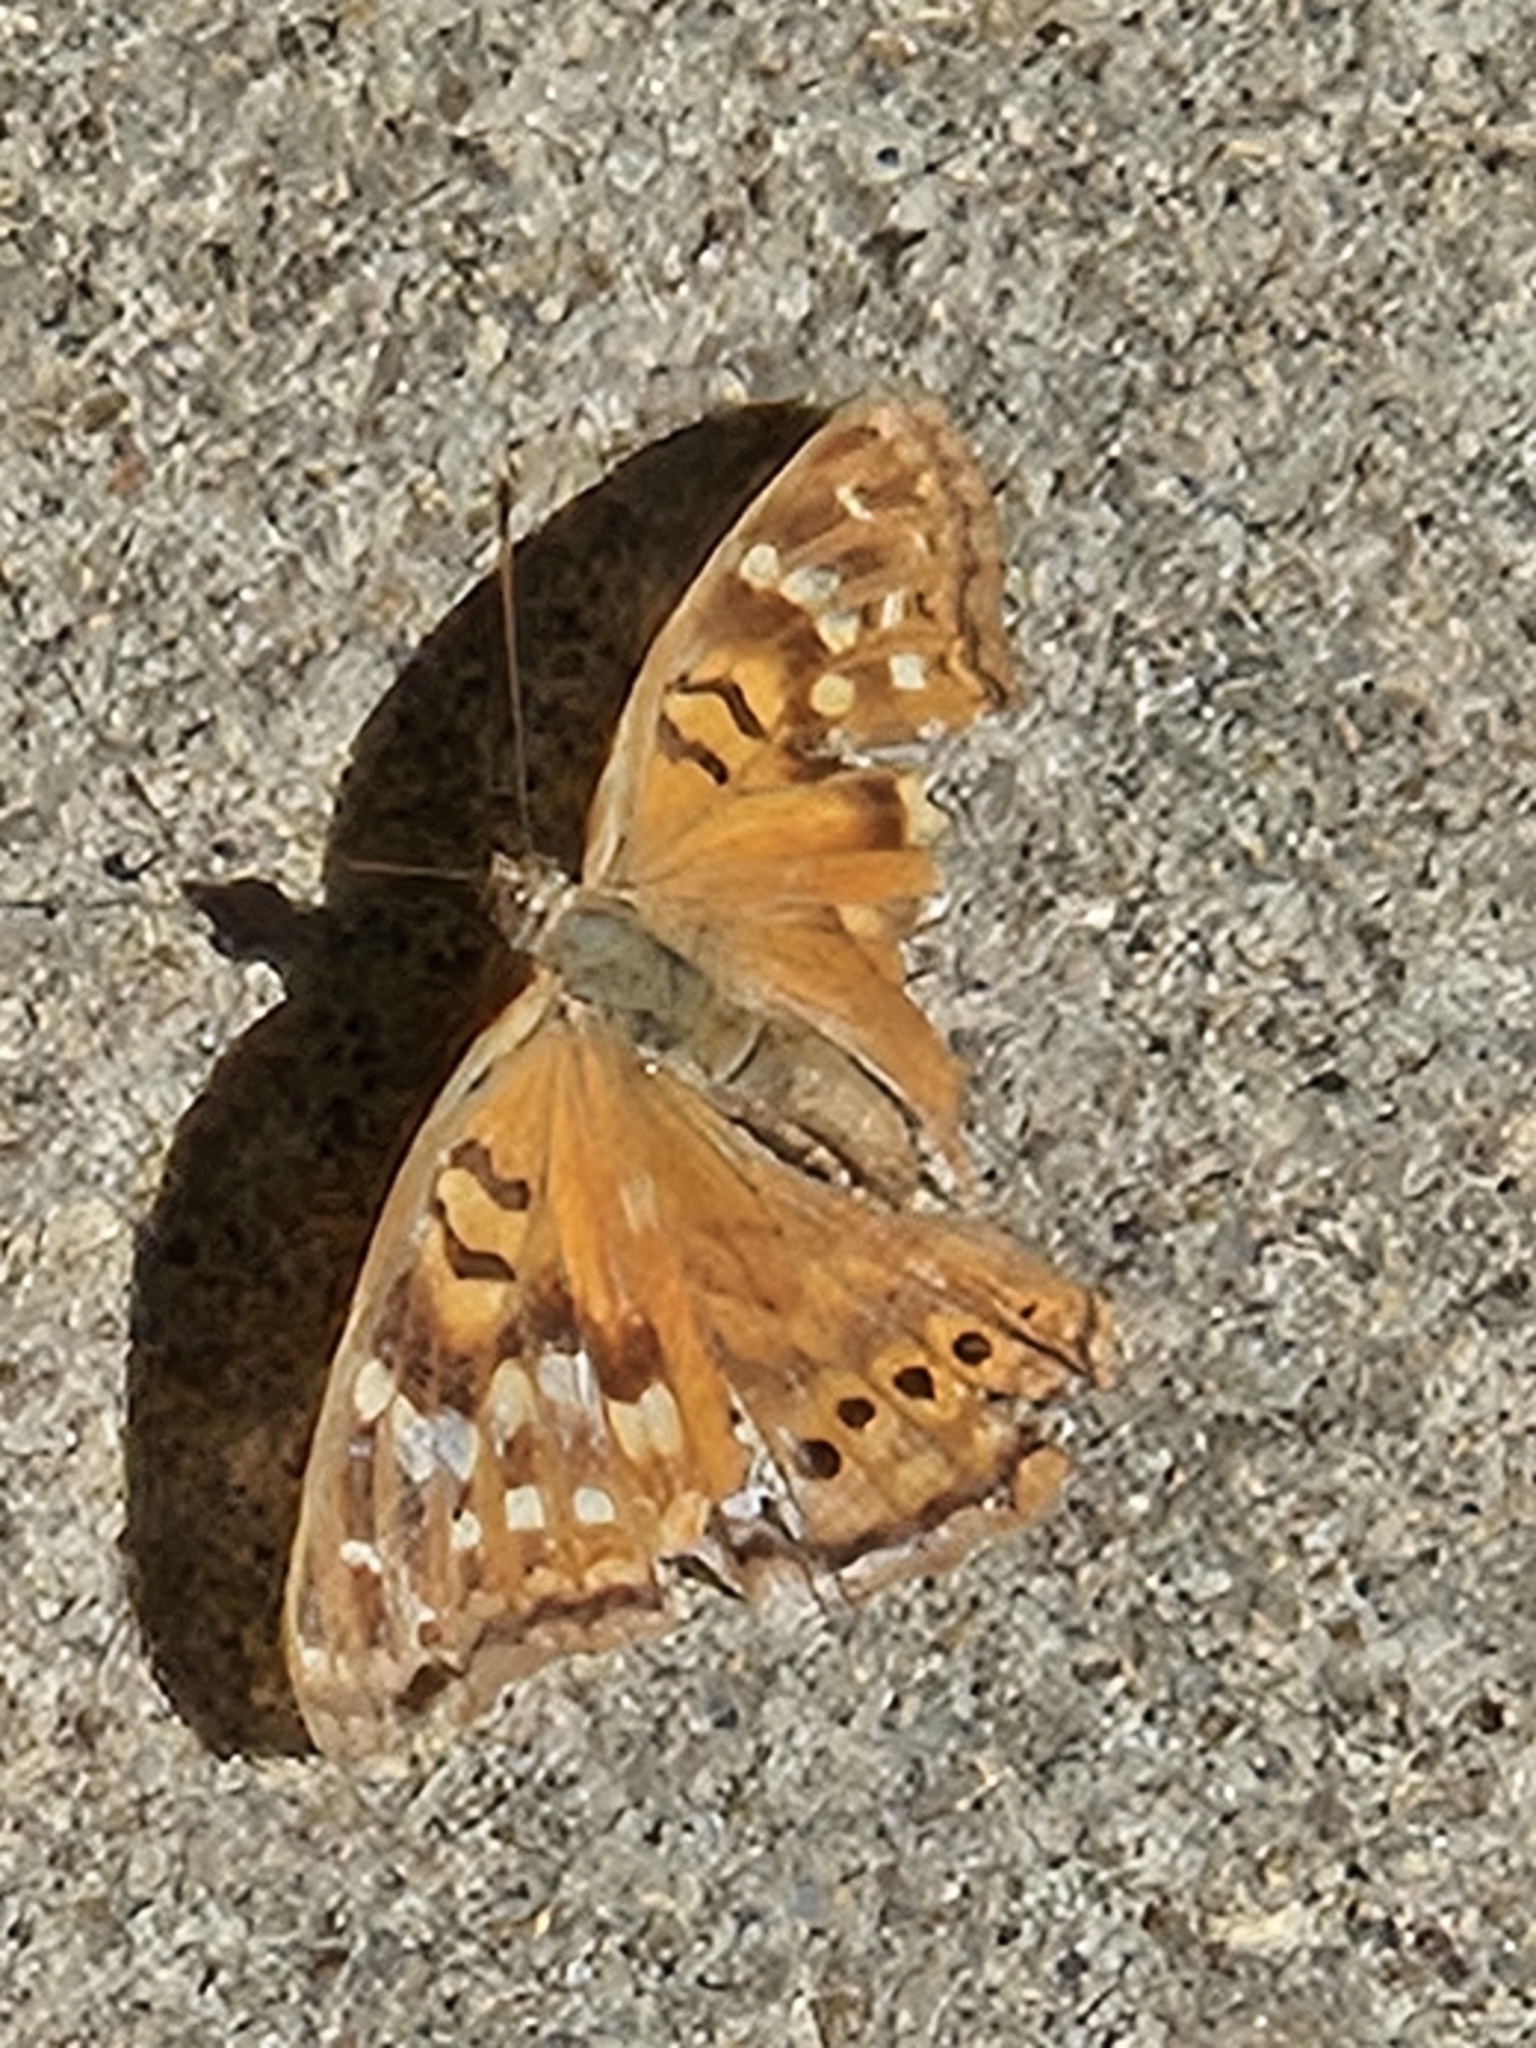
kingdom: Animalia
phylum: Arthropoda
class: Insecta
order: Lepidoptera
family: Nymphalidae
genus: Asterocampa
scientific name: Asterocampa clyton
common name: Tawny emperor
